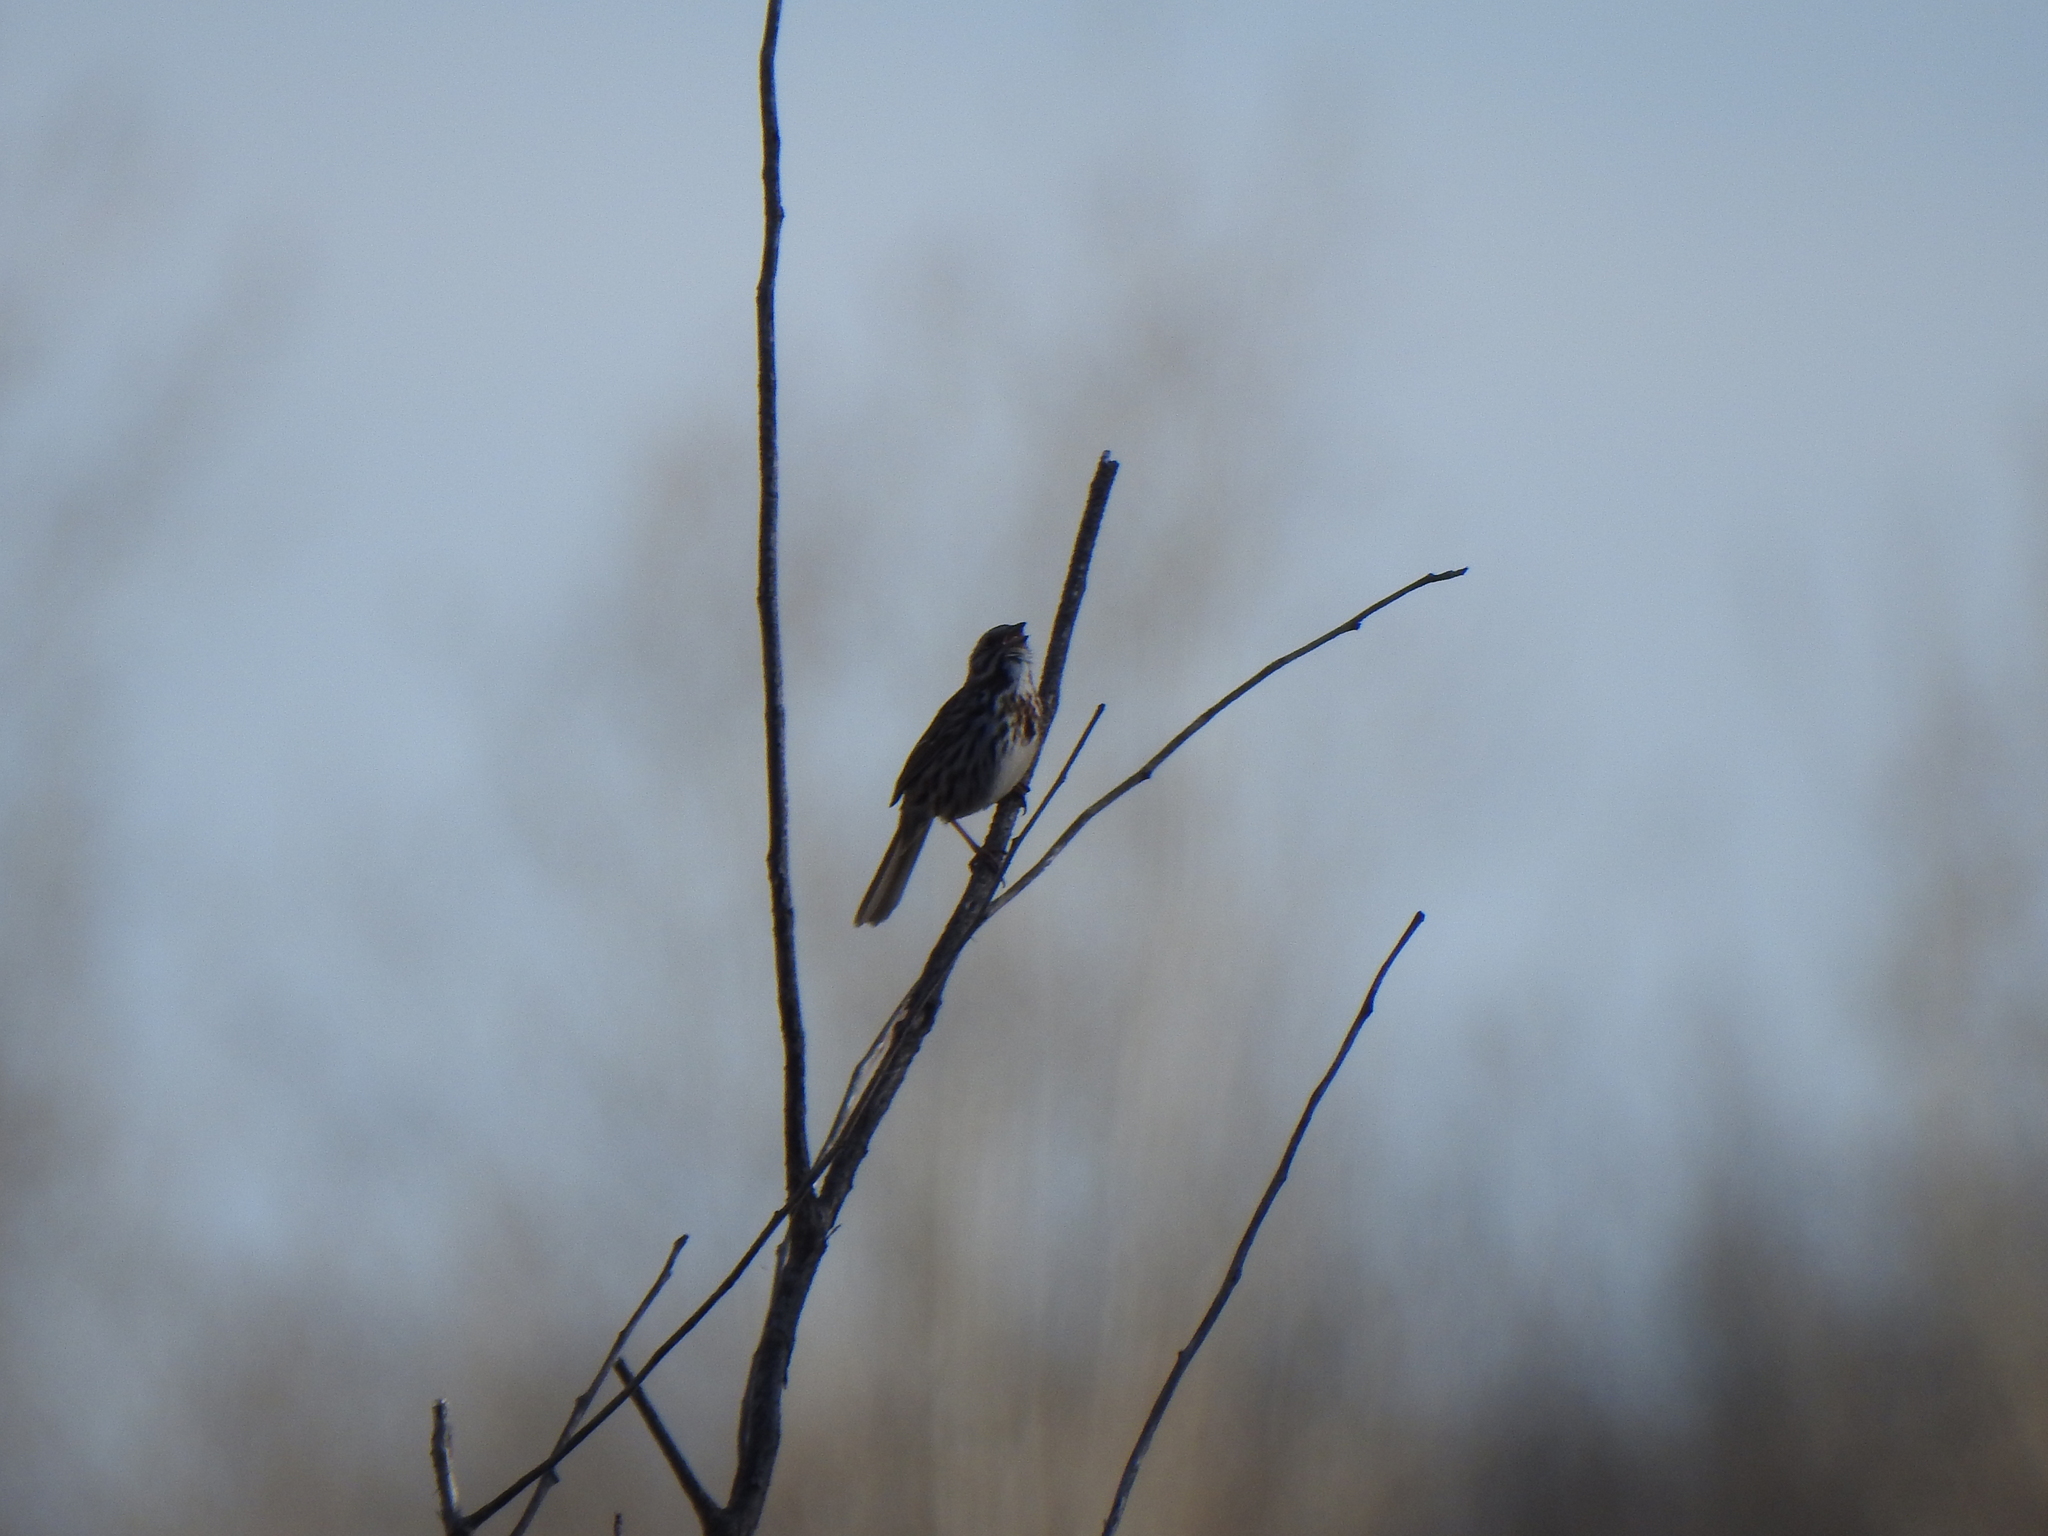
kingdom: Animalia
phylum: Chordata
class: Aves
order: Passeriformes
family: Passerellidae
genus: Melospiza
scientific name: Melospiza melodia
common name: Song sparrow
